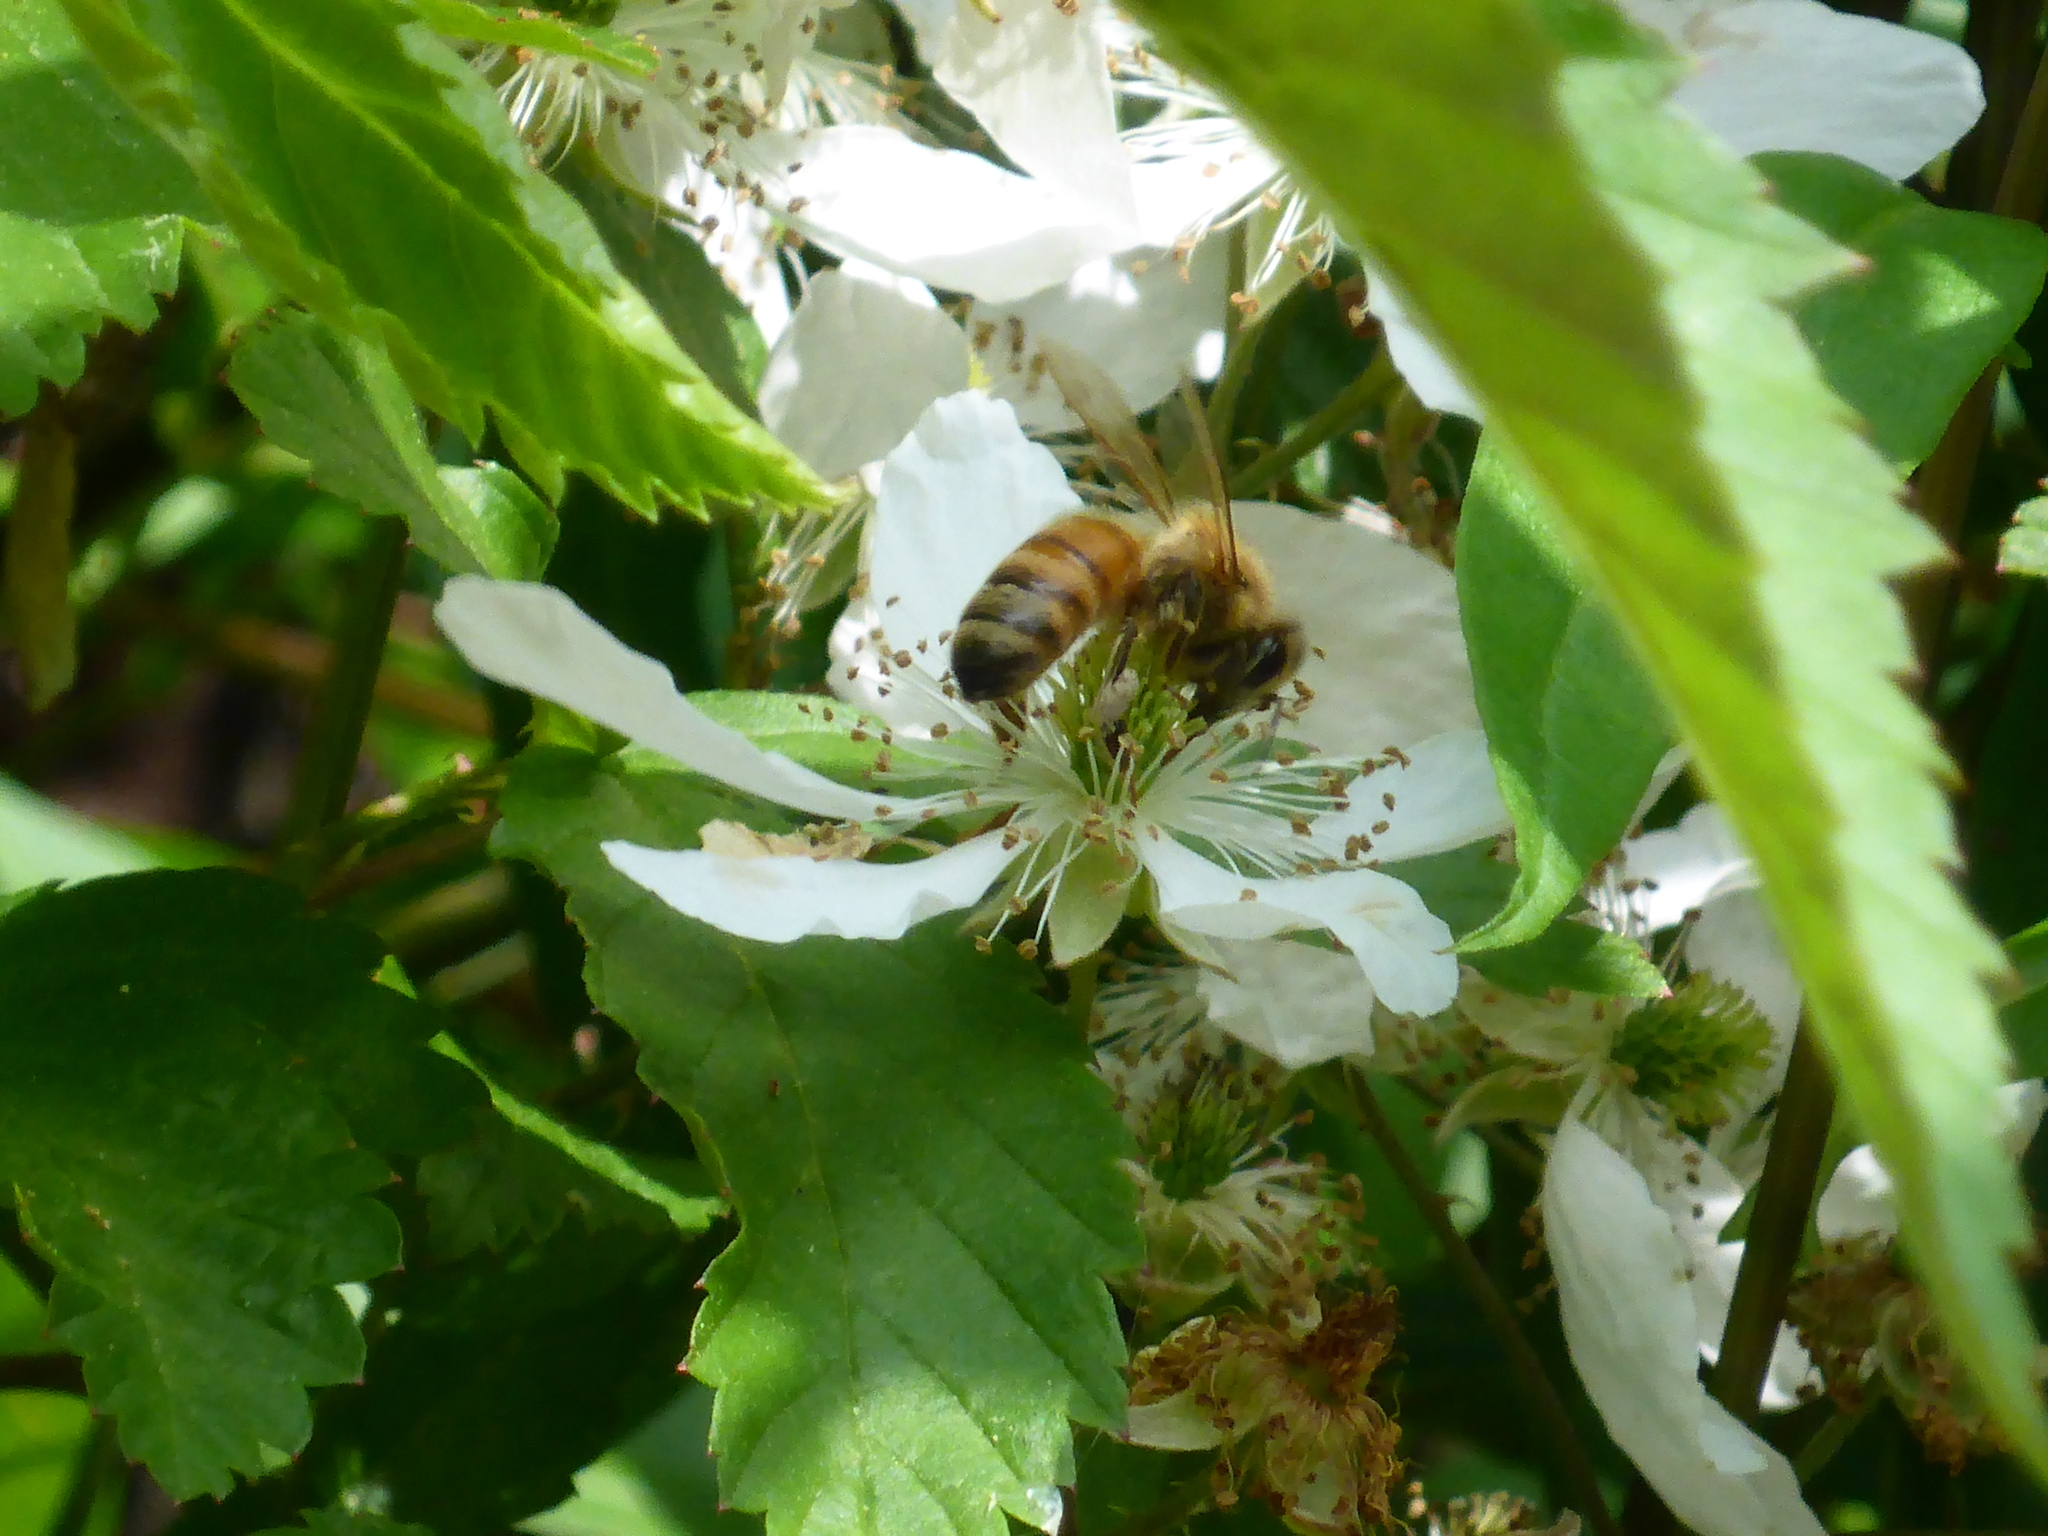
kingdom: Animalia
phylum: Arthropoda
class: Insecta
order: Hymenoptera
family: Apidae
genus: Apis
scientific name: Apis mellifera
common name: Honey bee
